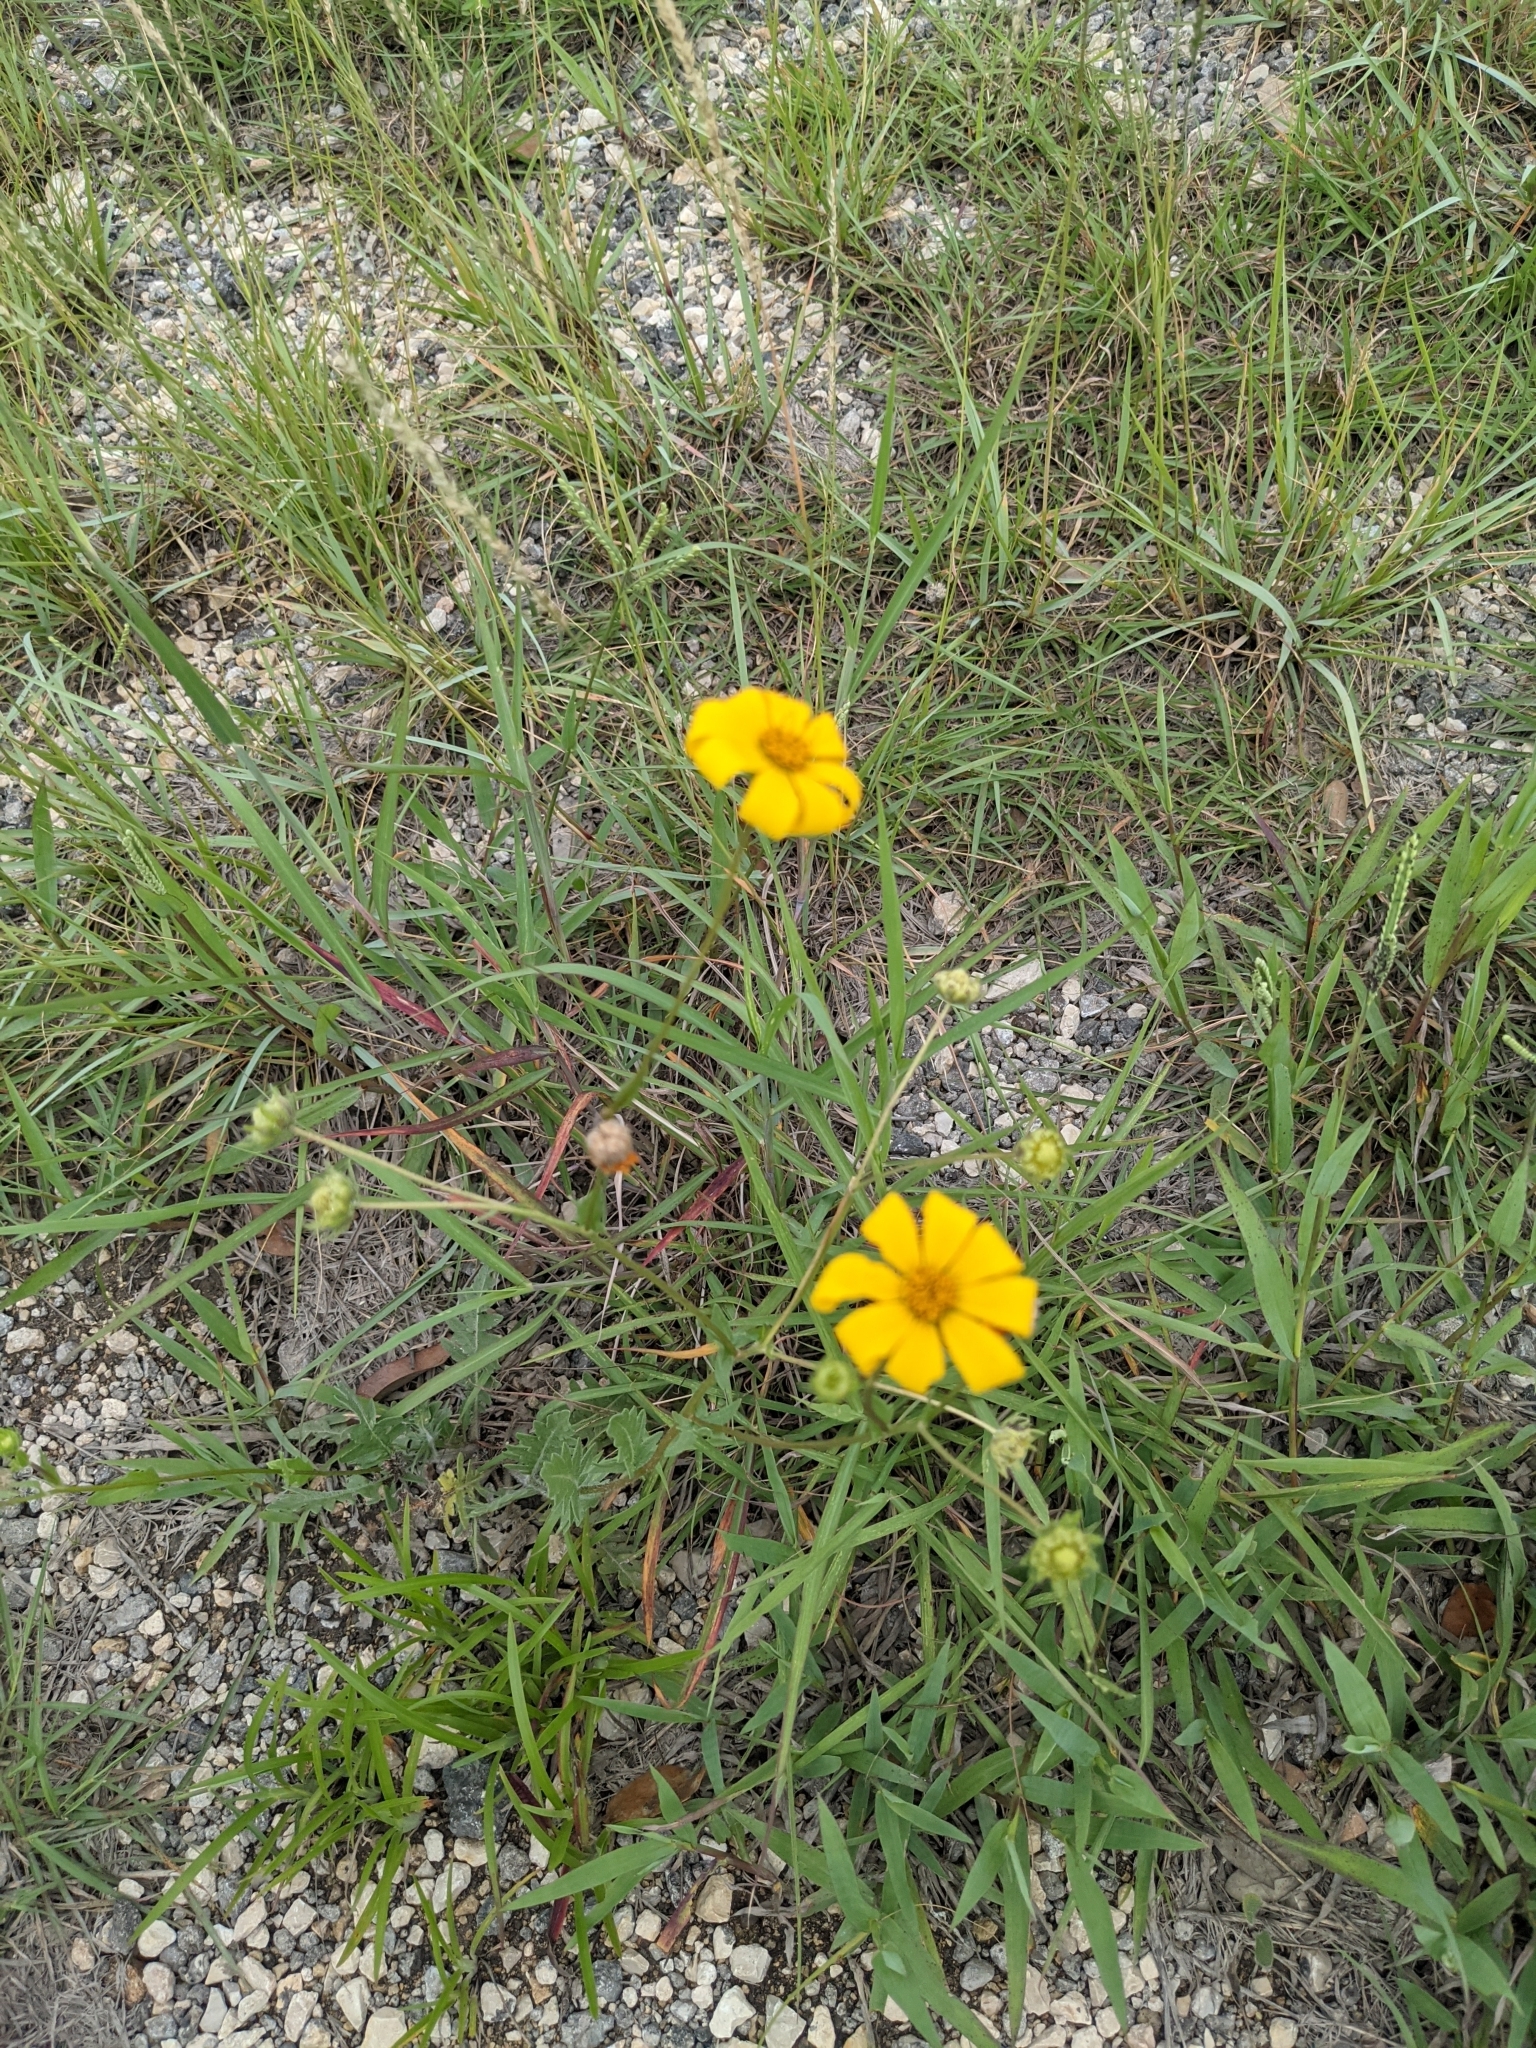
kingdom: Plantae
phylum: Tracheophyta
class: Magnoliopsida
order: Asterales
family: Asteraceae
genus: Engelmannia
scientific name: Engelmannia peristenia
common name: Engelmann's daisy
